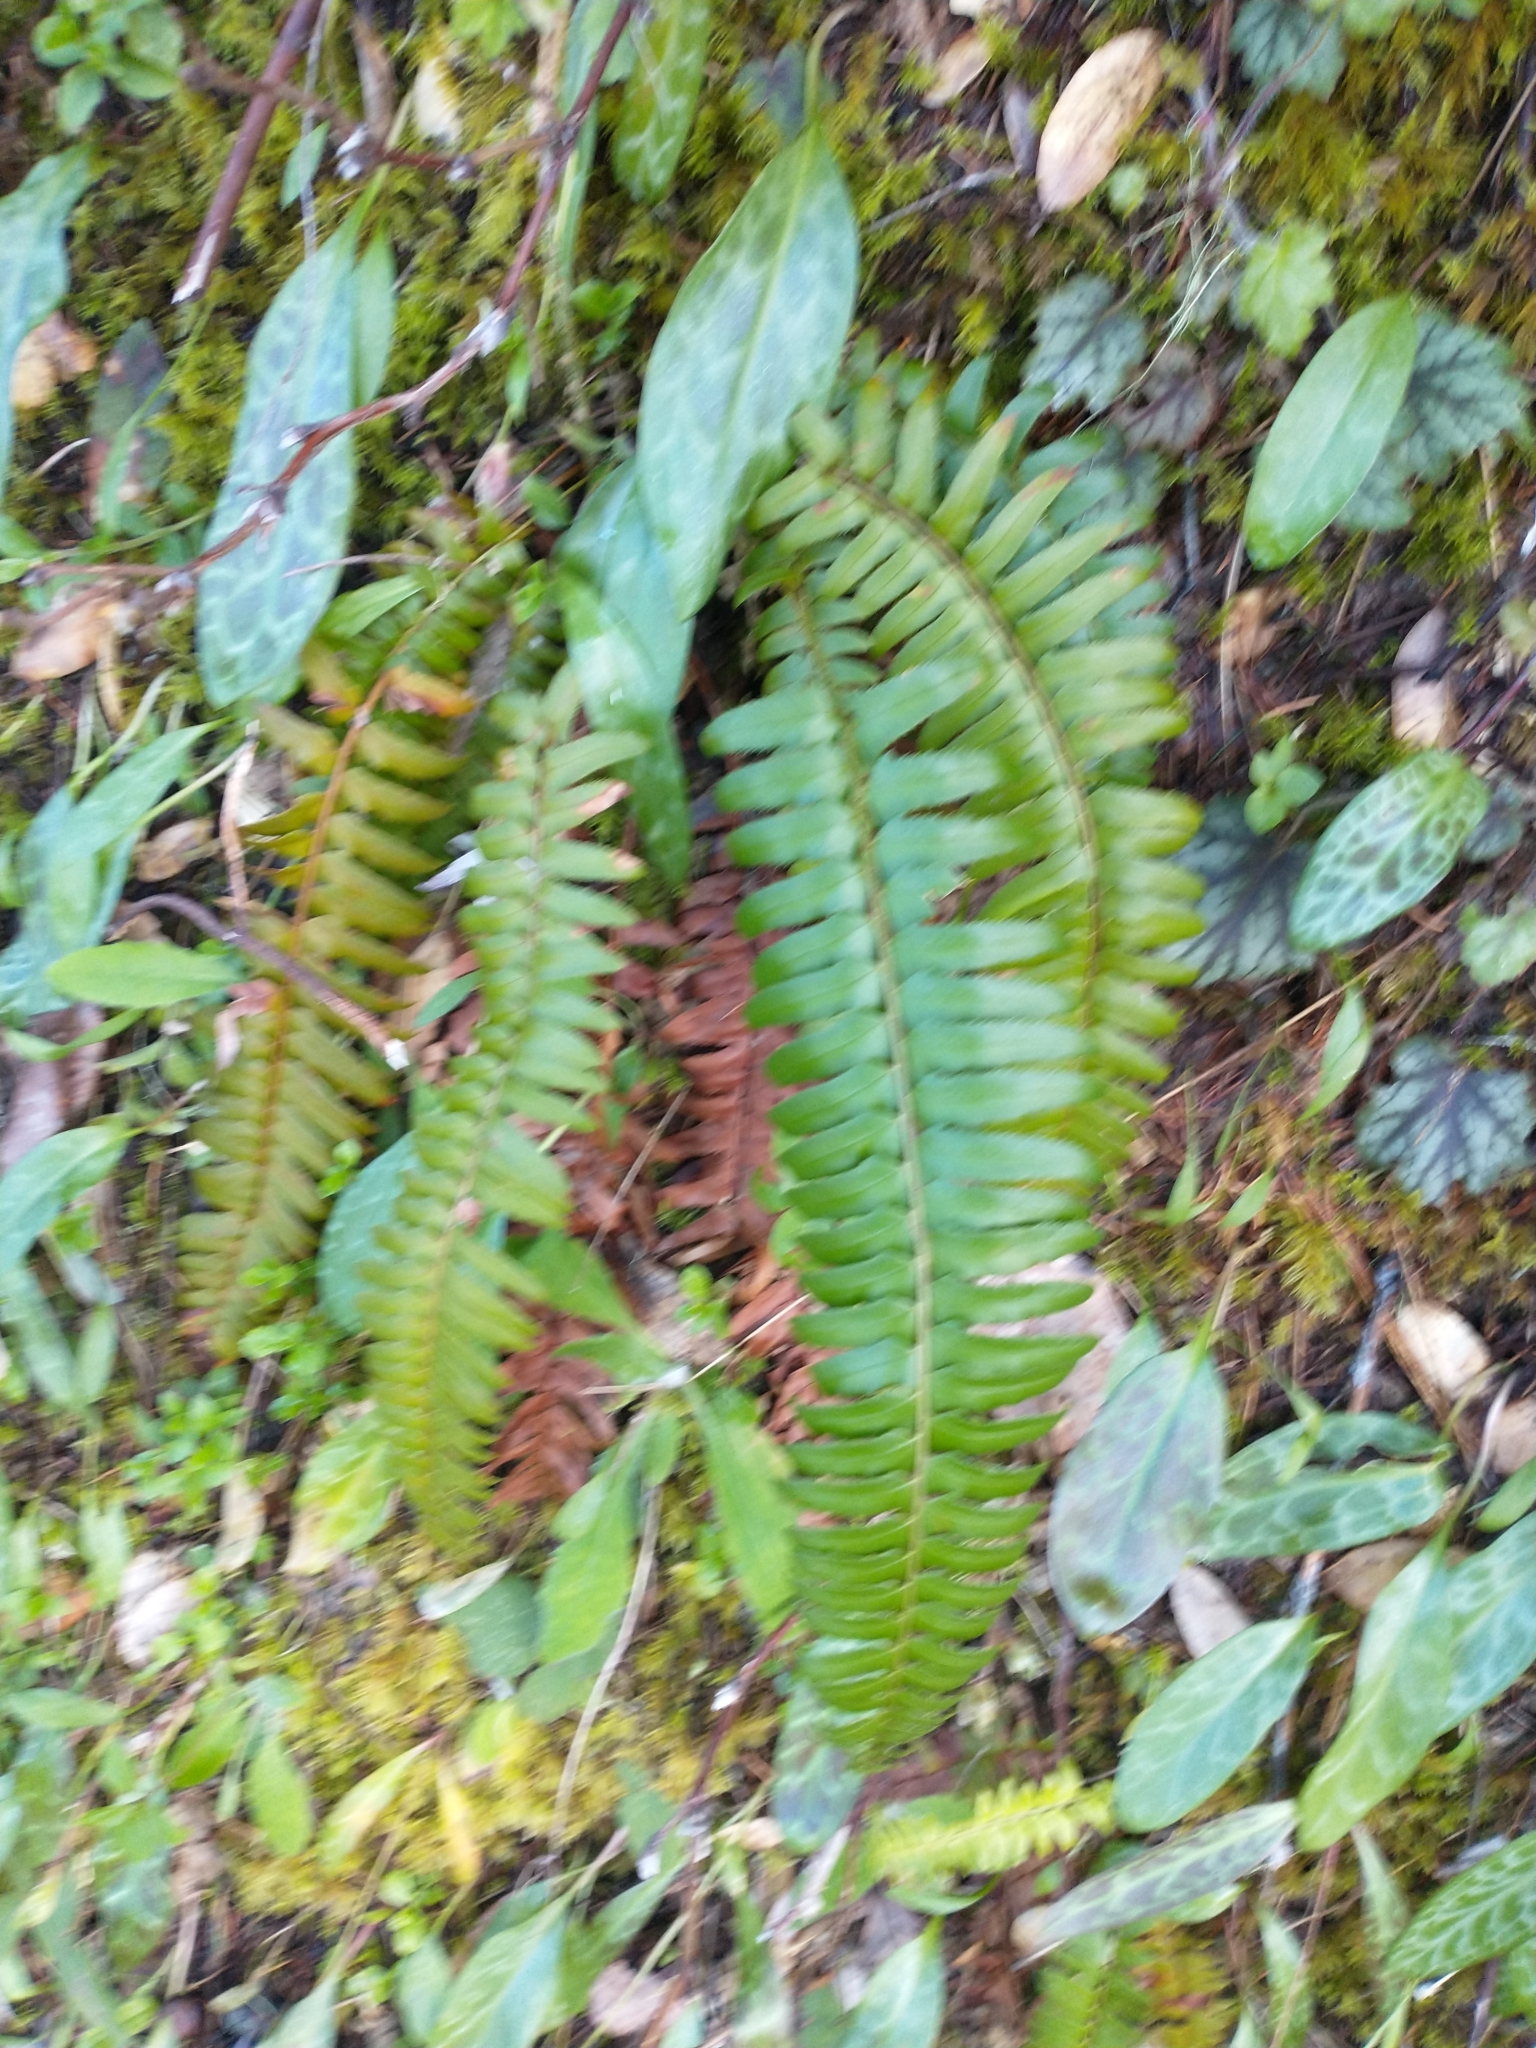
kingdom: Plantae
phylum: Tracheophyta
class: Polypodiopsida
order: Polypodiales
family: Dryopteridaceae
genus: Polystichum
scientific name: Polystichum munitum
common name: Western sword-fern
